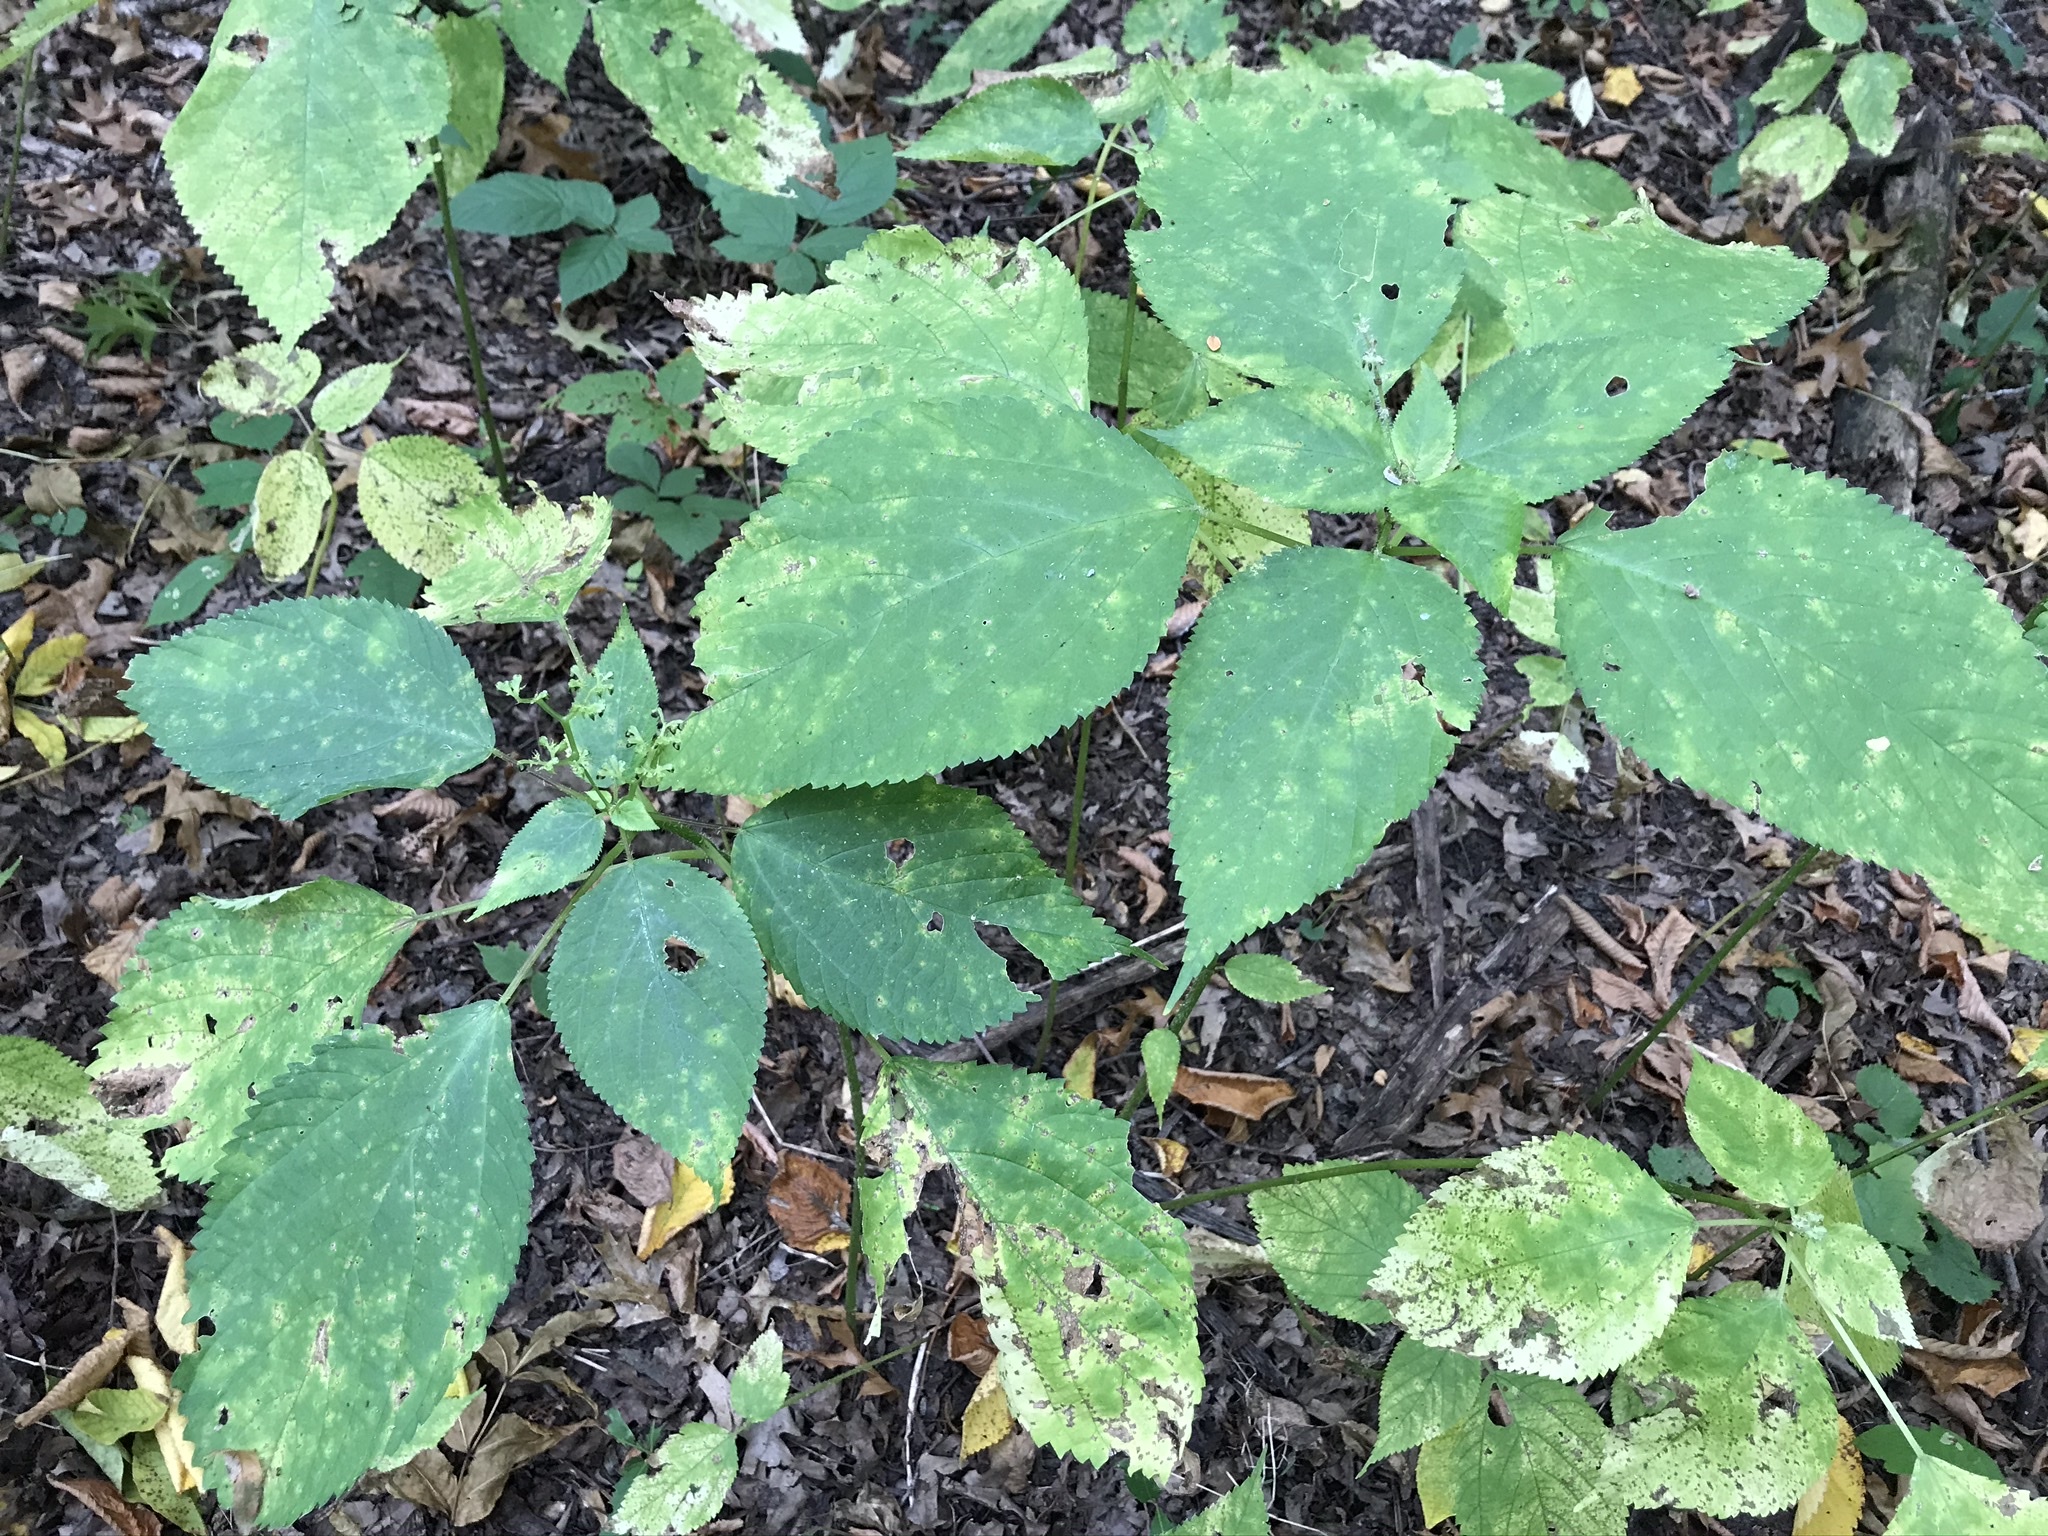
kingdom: Plantae
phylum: Tracheophyta
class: Magnoliopsida
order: Rosales
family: Urticaceae
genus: Laportea
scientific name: Laportea canadensis
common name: Canada nettle
